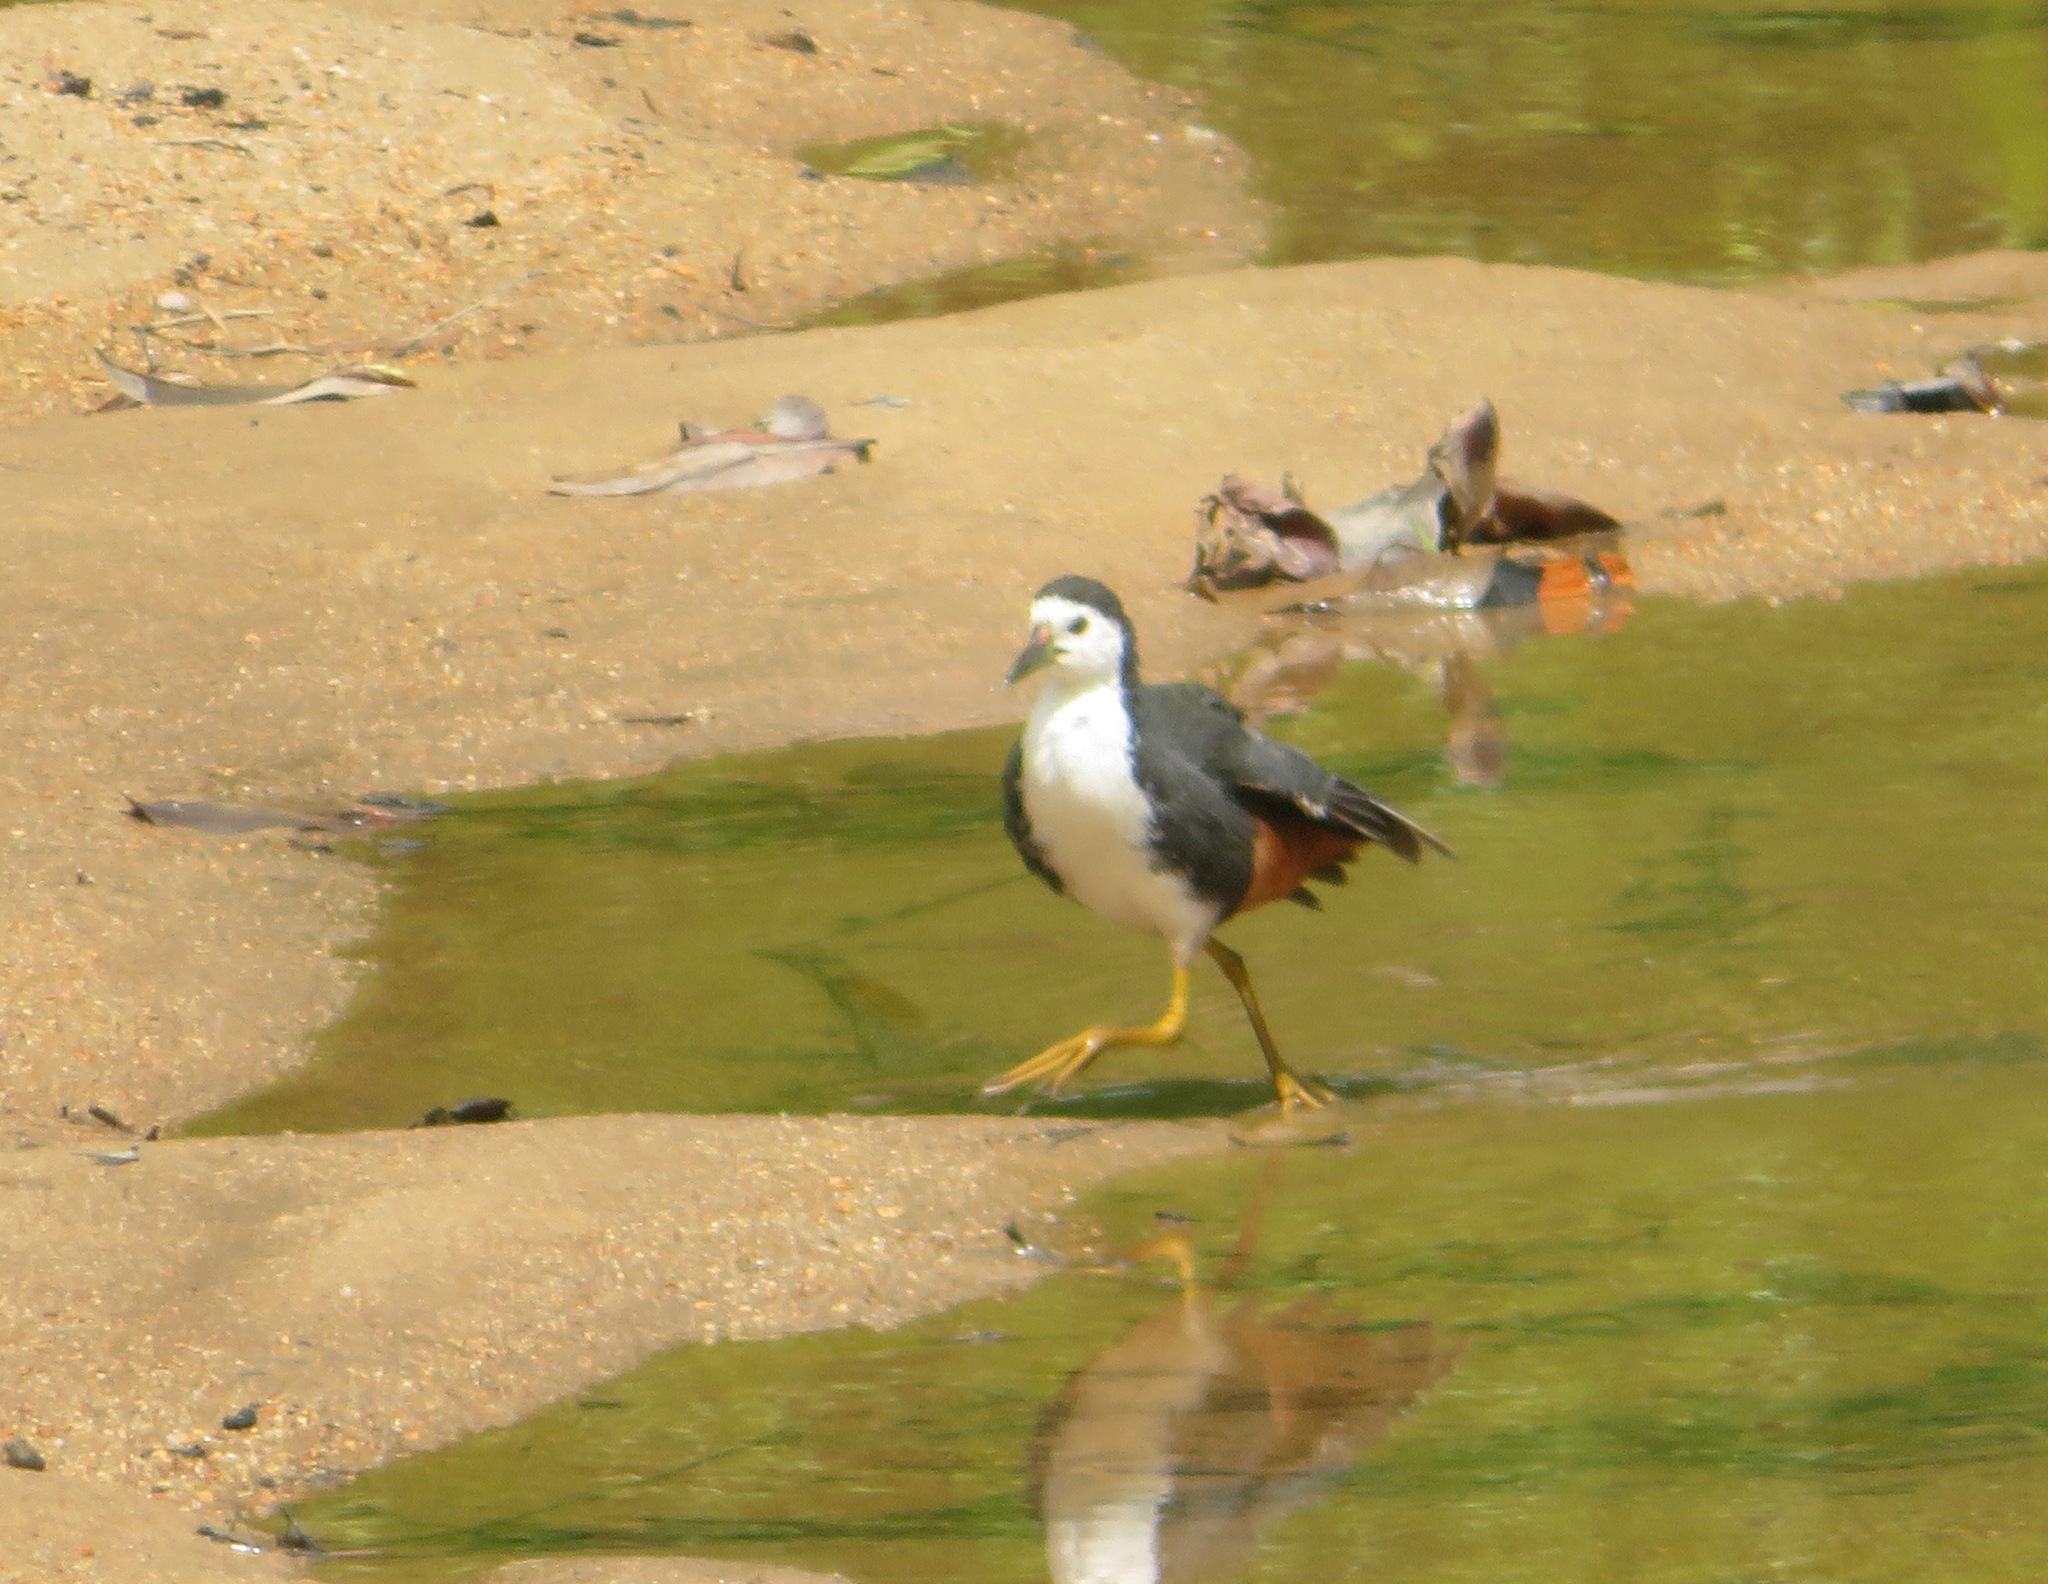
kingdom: Animalia
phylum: Chordata
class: Aves
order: Gruiformes
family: Rallidae
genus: Amaurornis
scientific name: Amaurornis phoenicurus
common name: White-breasted waterhen
